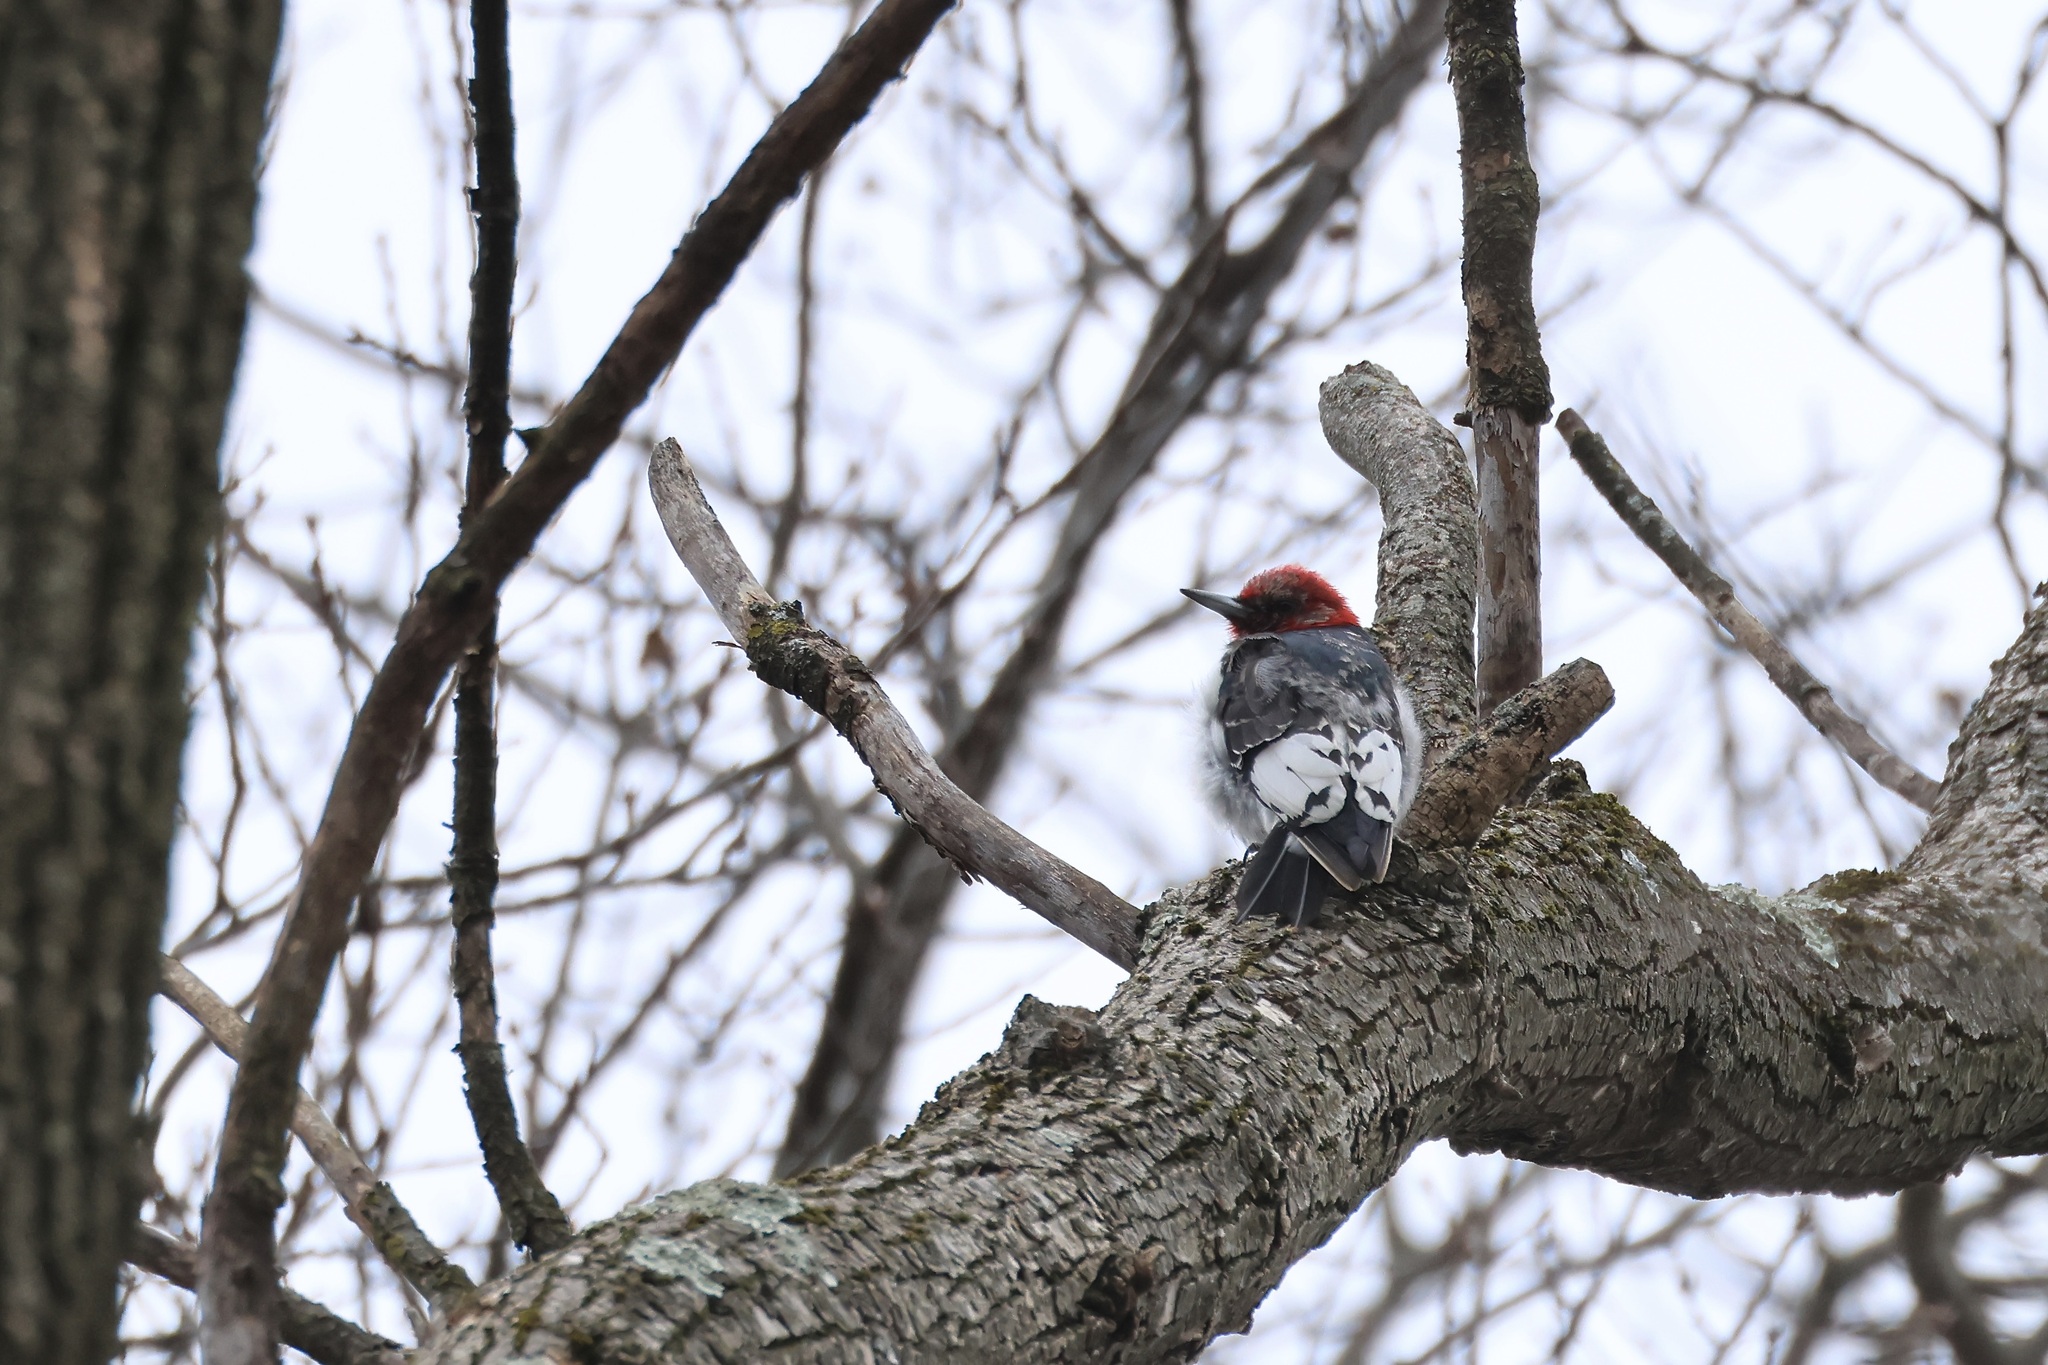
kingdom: Animalia
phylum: Chordata
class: Aves
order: Piciformes
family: Picidae
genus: Melanerpes
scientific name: Melanerpes erythrocephalus
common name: Red-headed woodpecker
